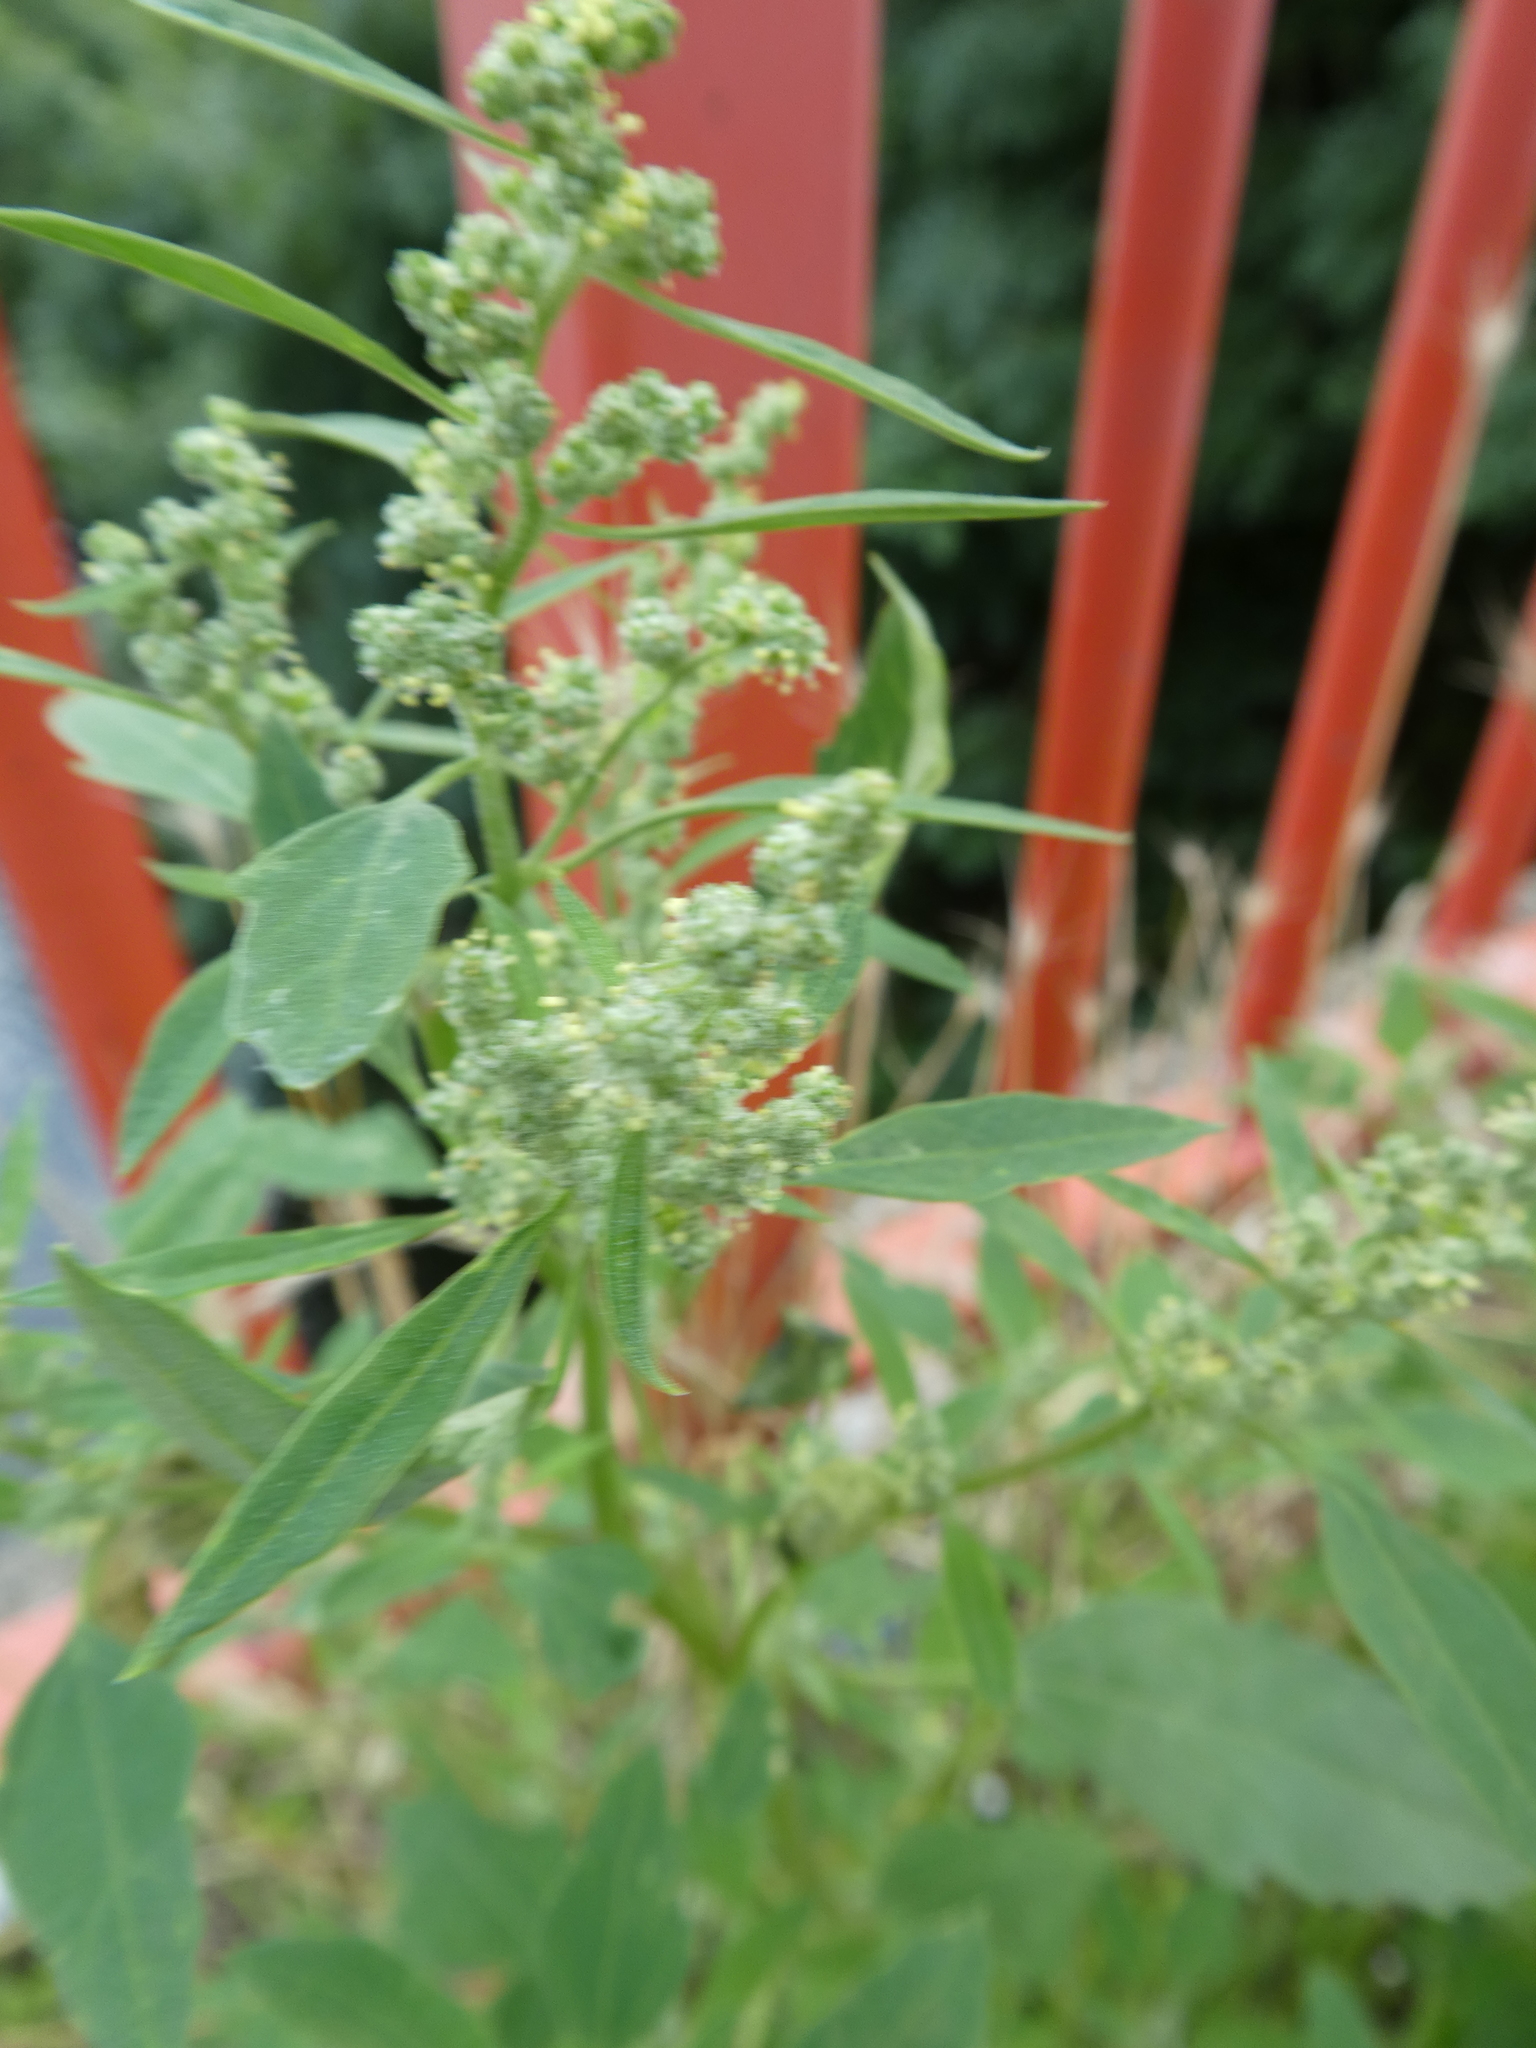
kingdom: Plantae
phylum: Tracheophyta
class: Magnoliopsida
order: Caryophyllales
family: Amaranthaceae
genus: Chenopodium
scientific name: Chenopodium album
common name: Fat-hen
